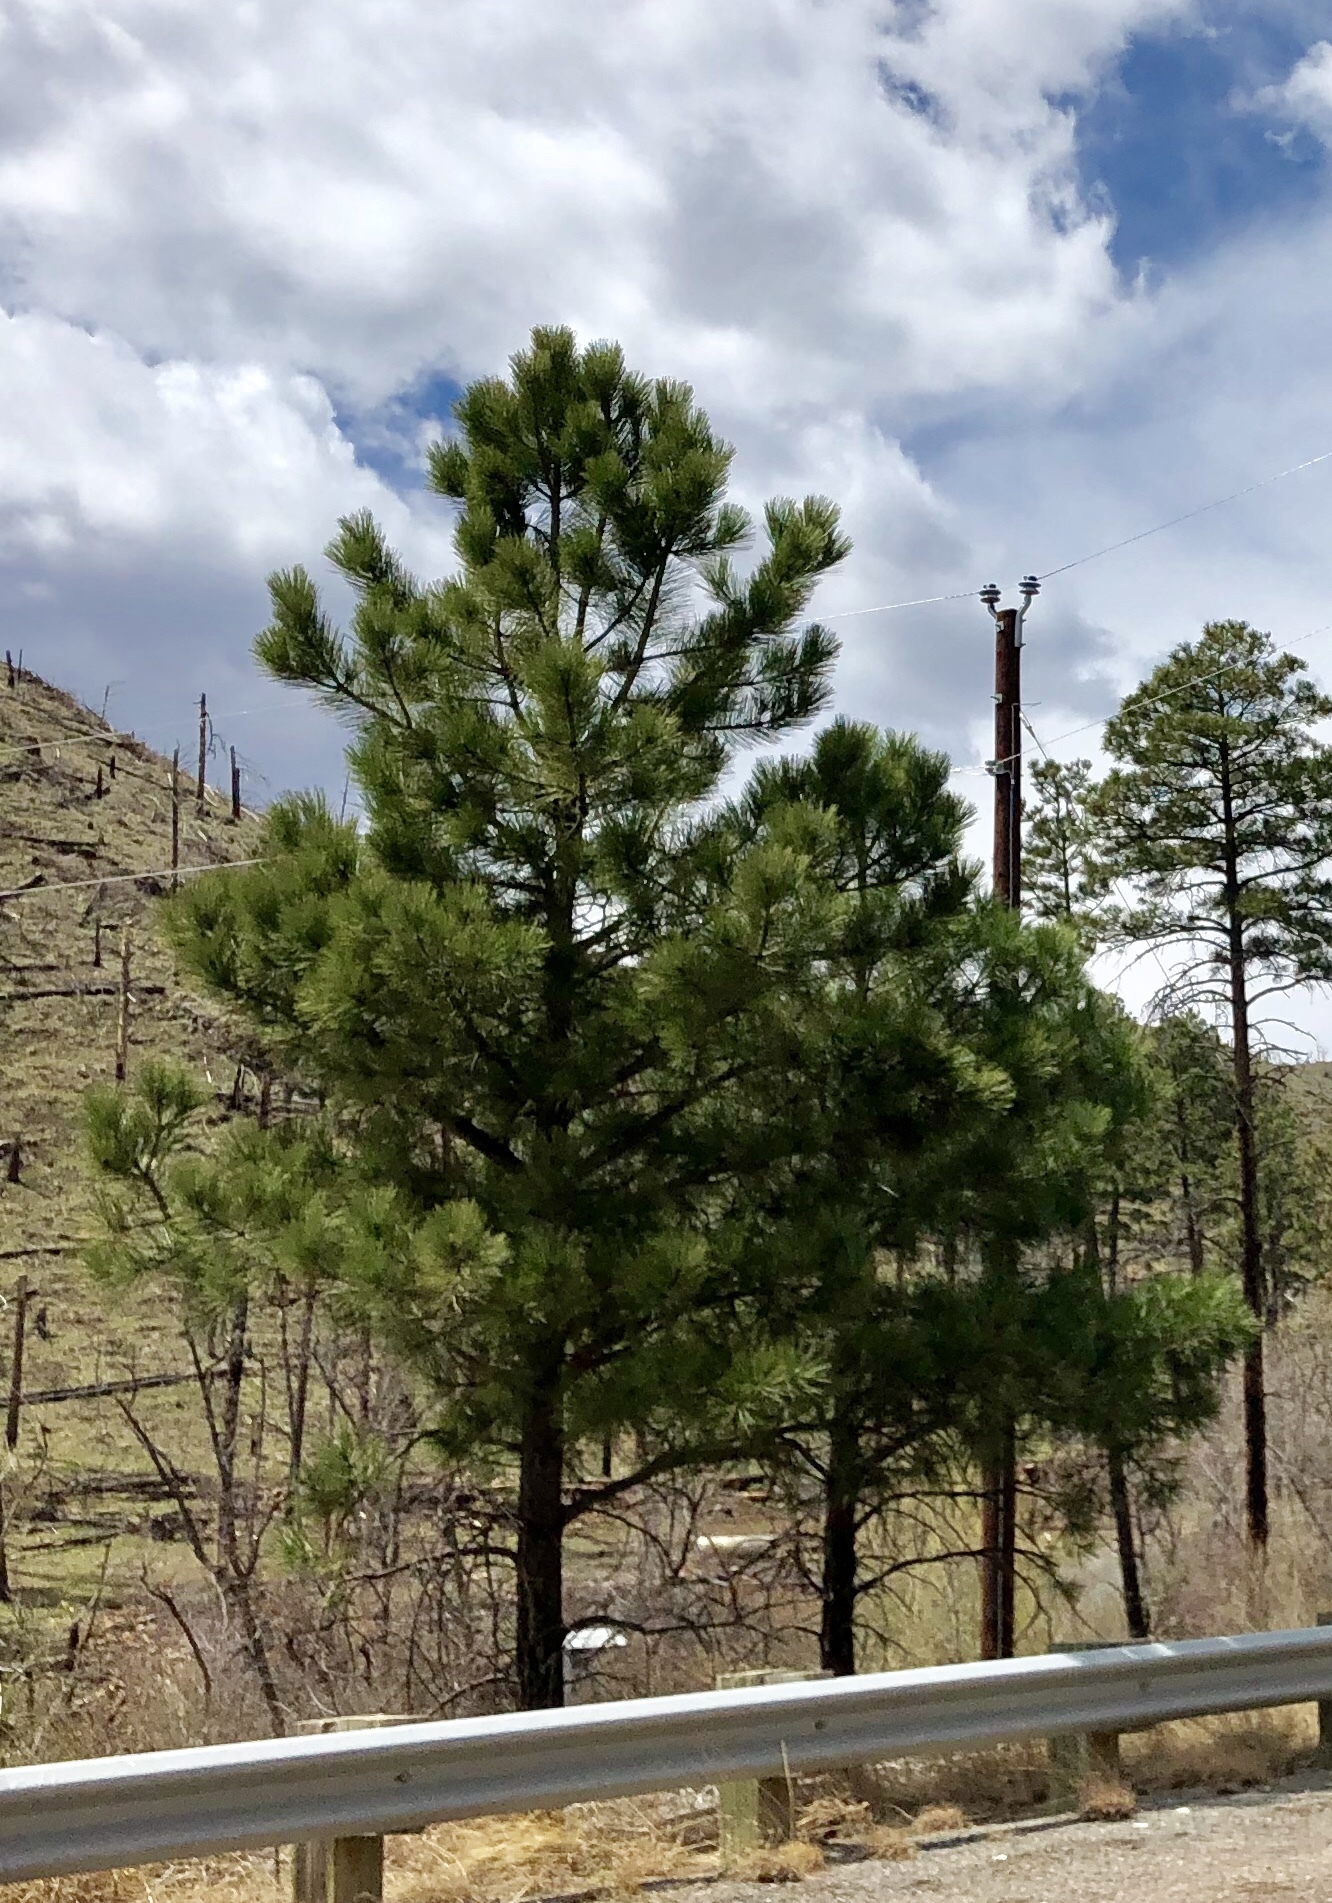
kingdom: Plantae
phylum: Tracheophyta
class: Pinopsida
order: Pinales
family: Pinaceae
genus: Pinus
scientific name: Pinus ponderosa
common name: Western yellow-pine
